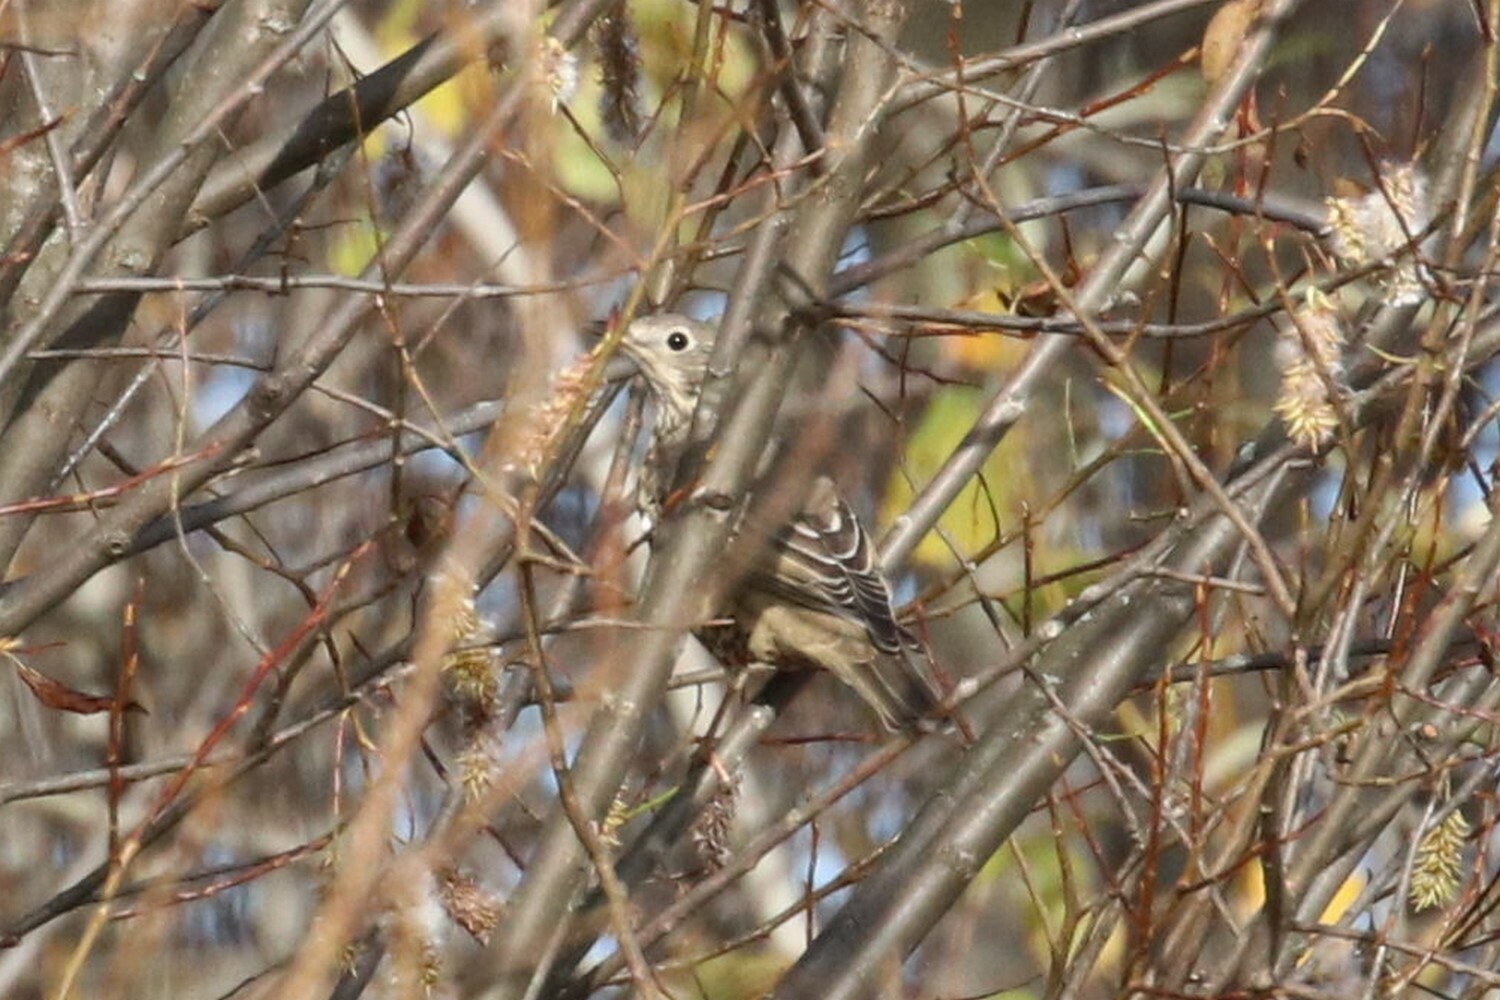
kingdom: Animalia
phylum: Chordata
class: Aves
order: Passeriformes
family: Turdidae
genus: Turdus
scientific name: Turdus viscivorus
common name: Mistle thrush
